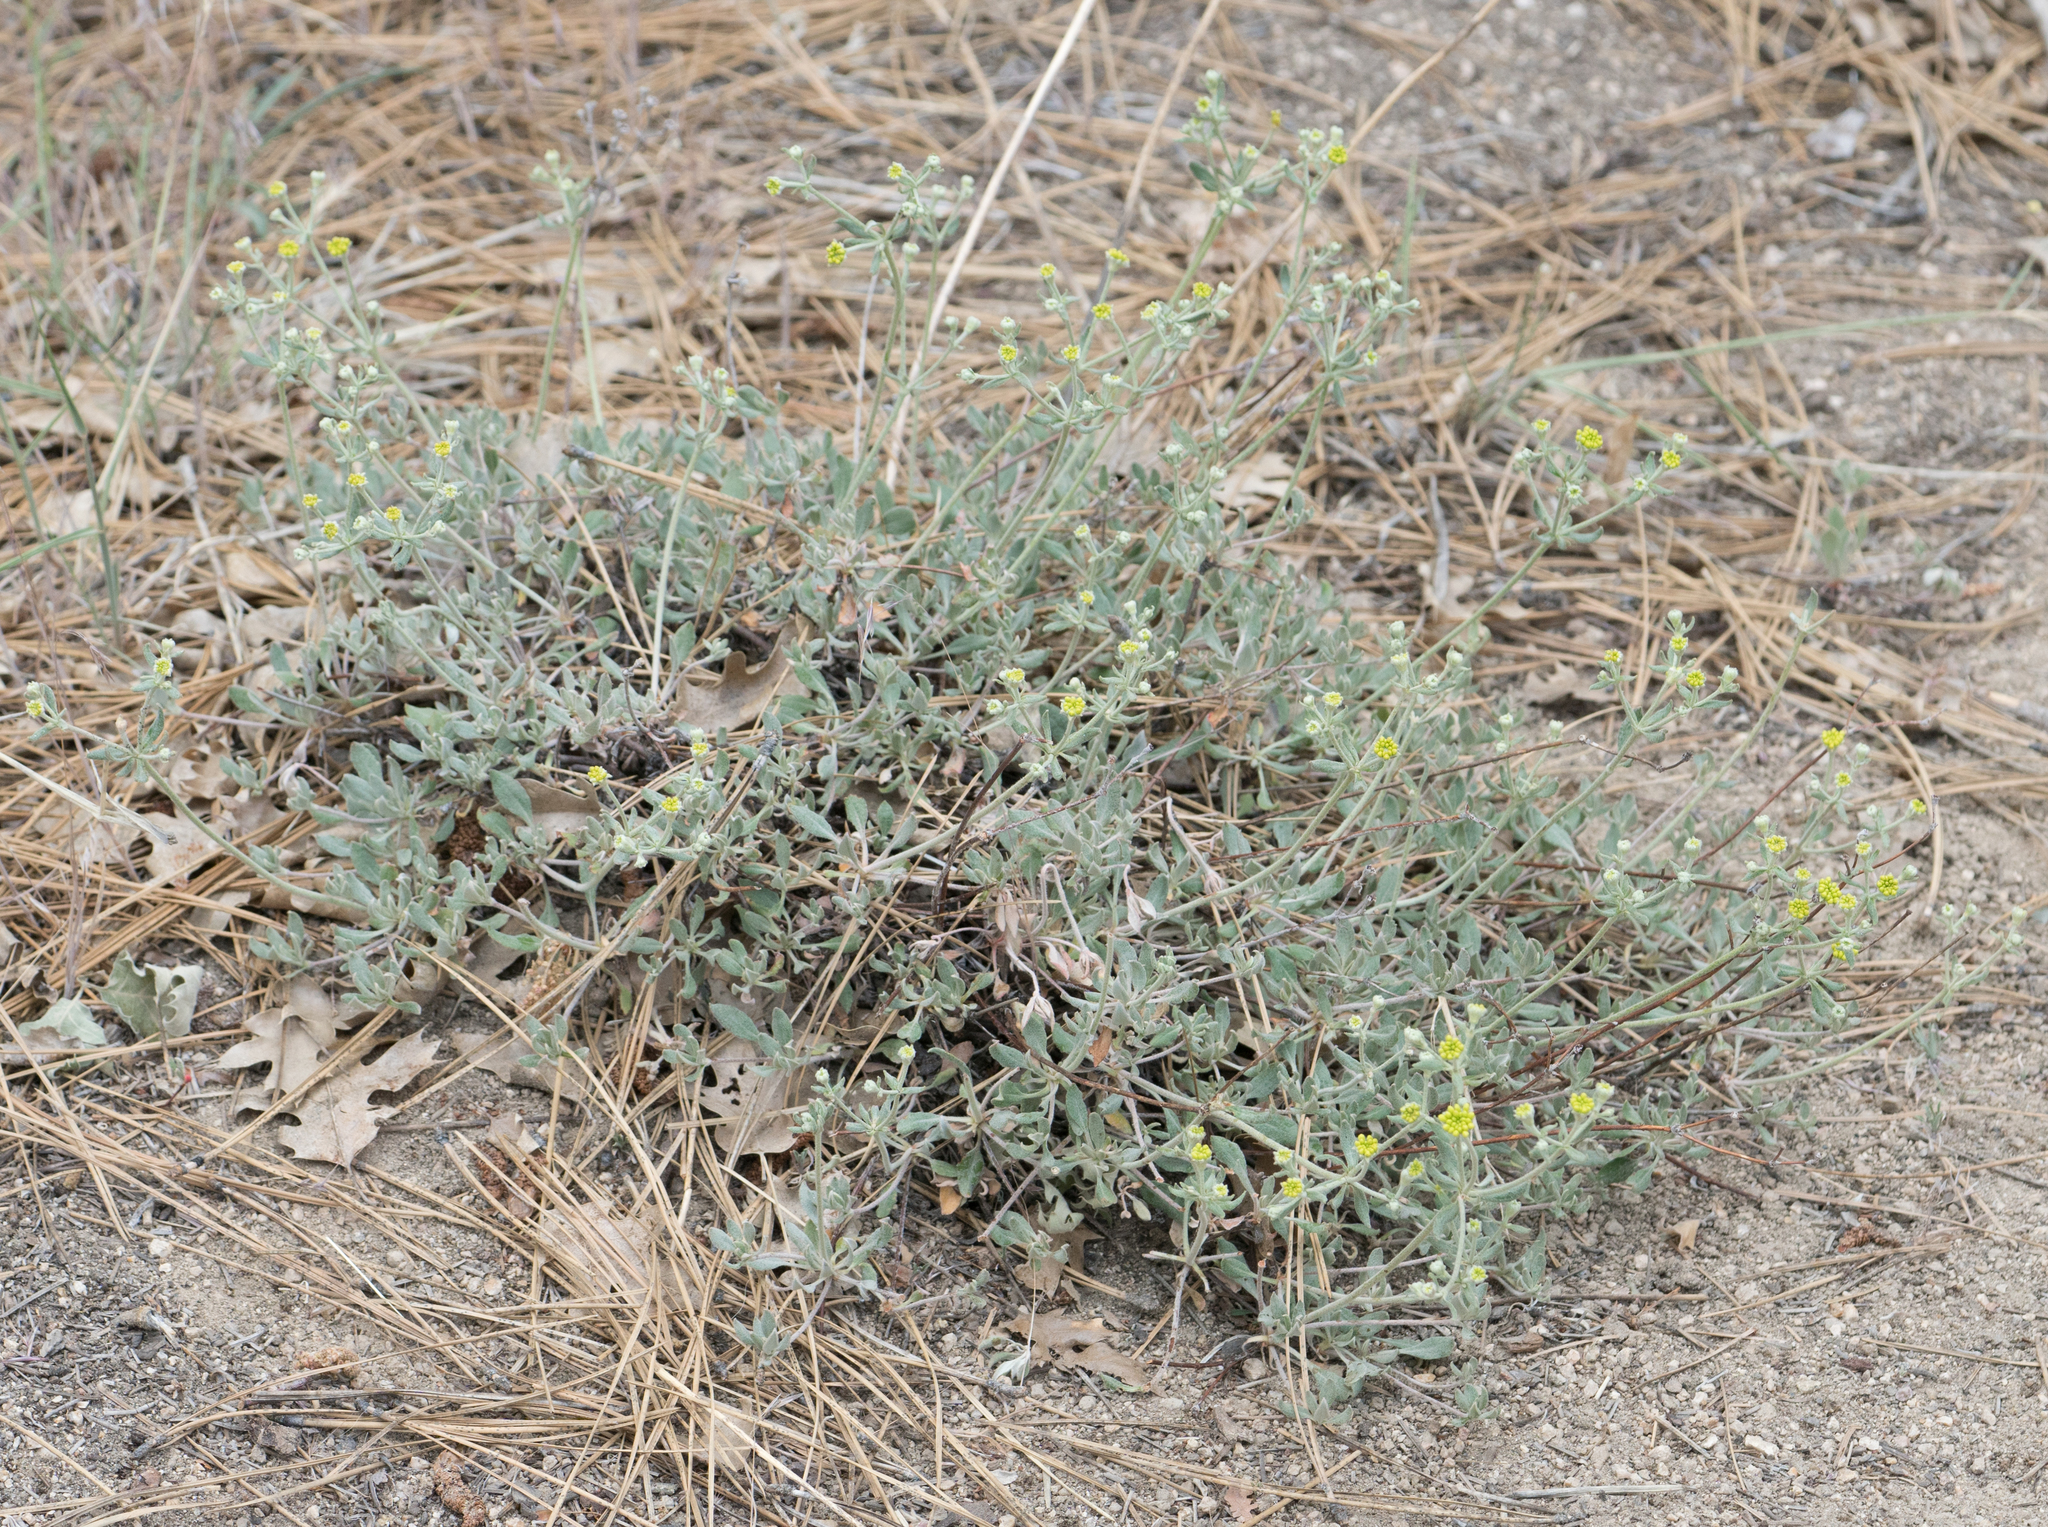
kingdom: Plantae
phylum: Tracheophyta
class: Magnoliopsida
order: Caryophyllales
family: Polygonaceae
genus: Eriogonum
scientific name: Eriogonum umbellatum
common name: Sulfur-buckwheat
